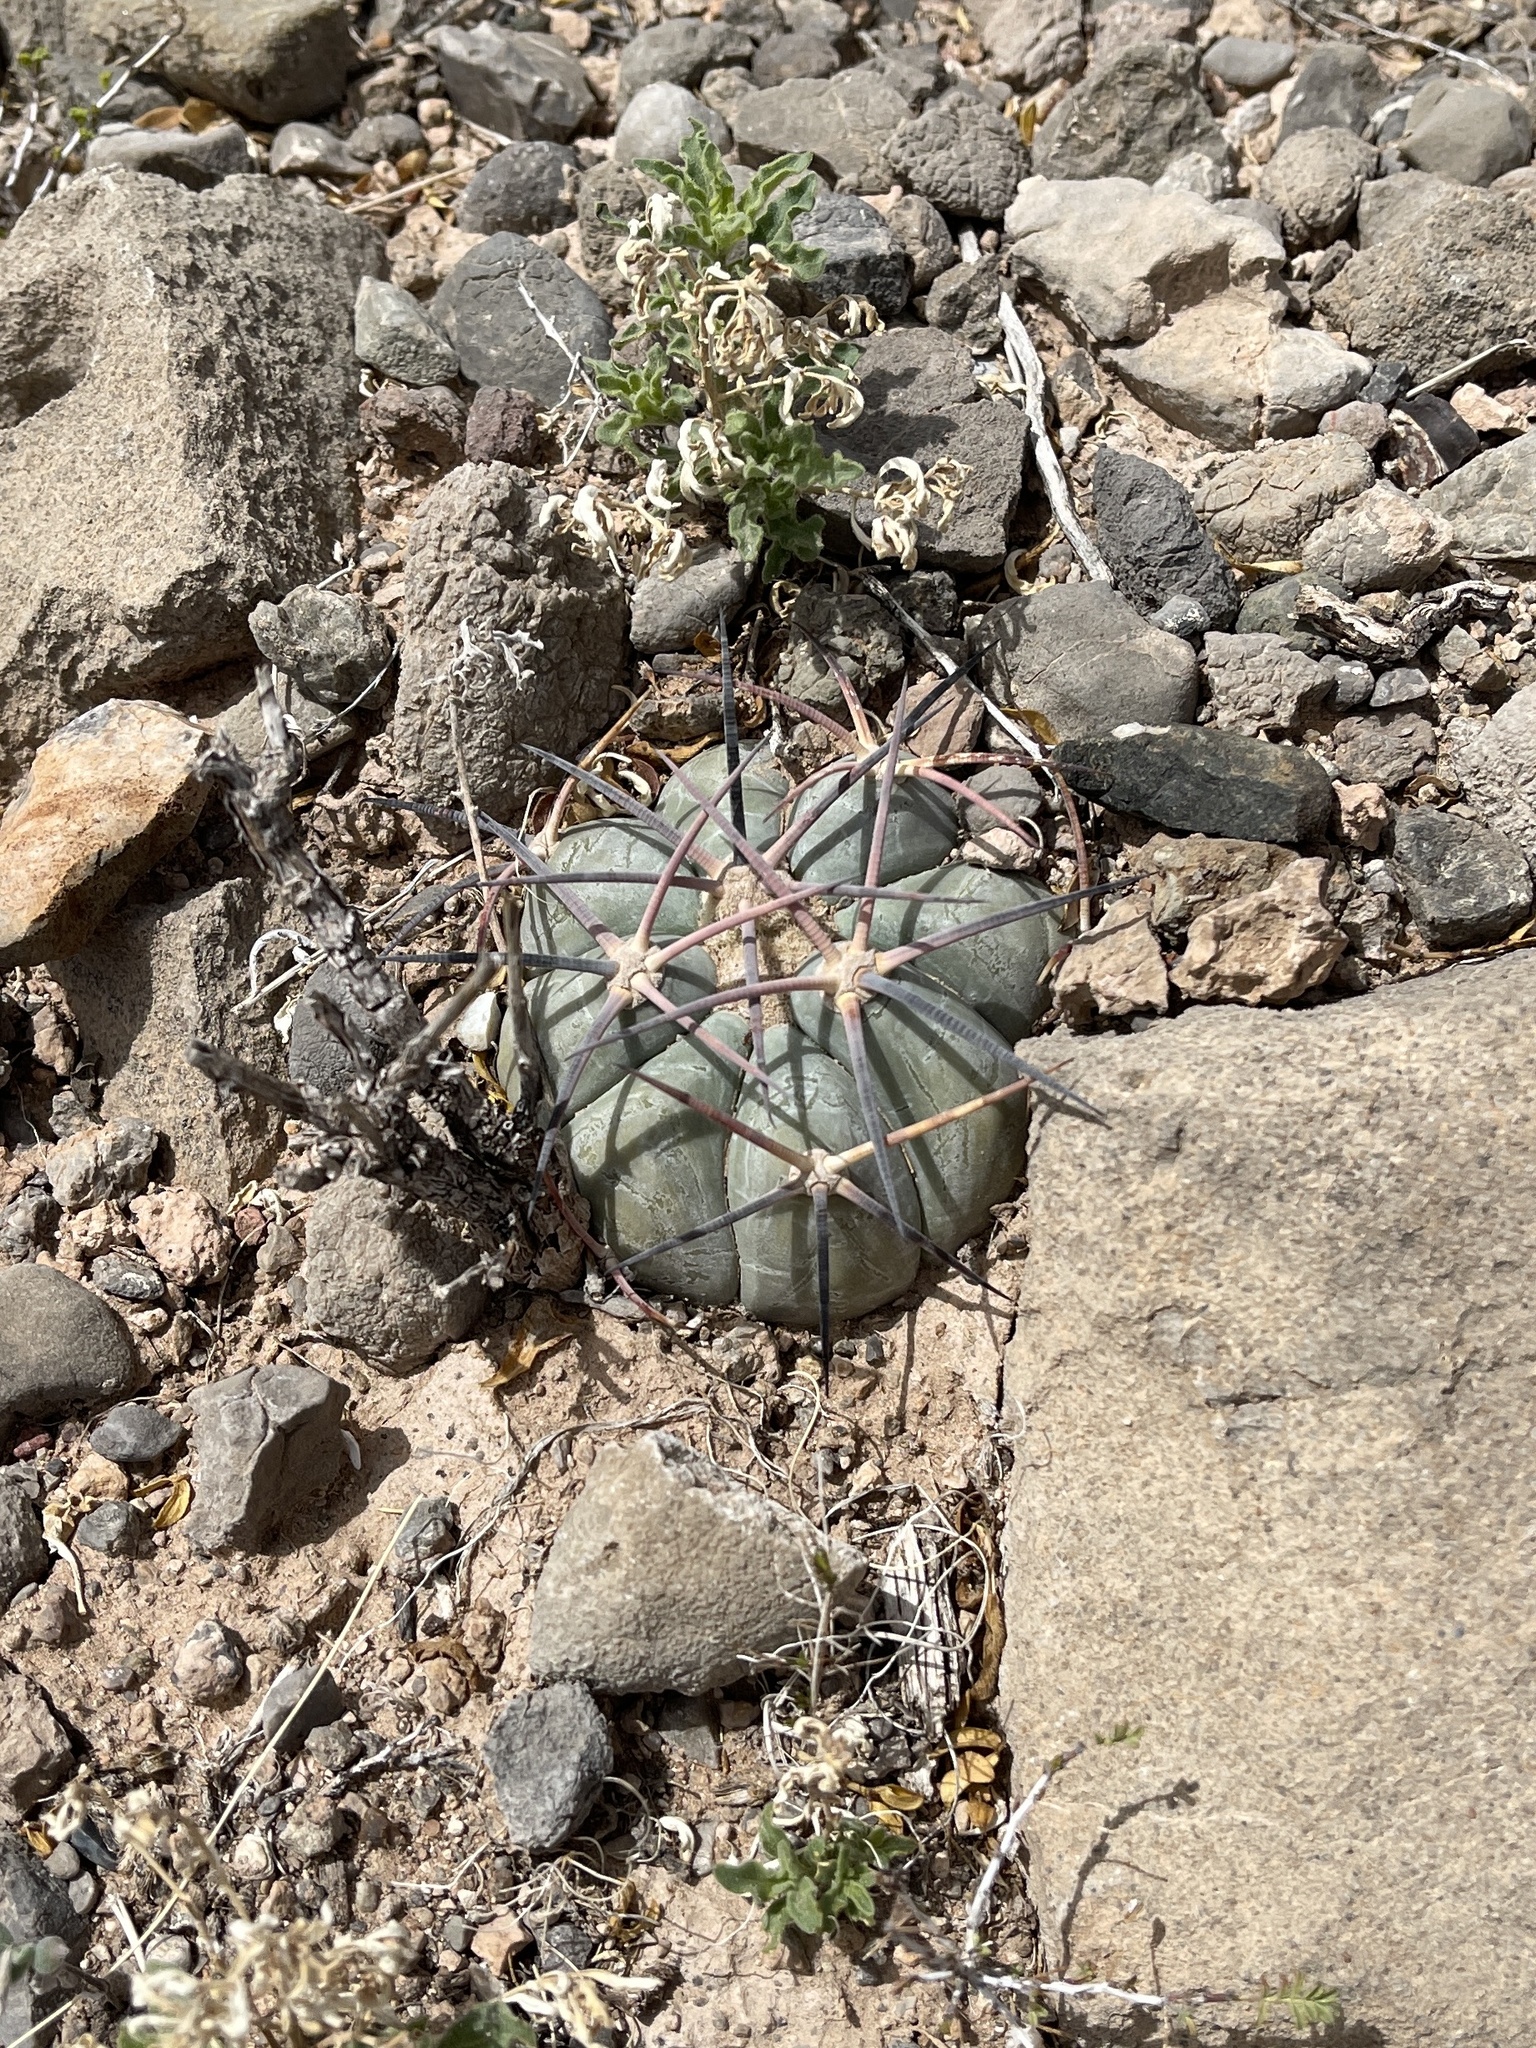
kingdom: Plantae
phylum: Tracheophyta
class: Magnoliopsida
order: Caryophyllales
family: Cactaceae
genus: Echinocactus
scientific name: Echinocactus horizonthalonius
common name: Devilshead
